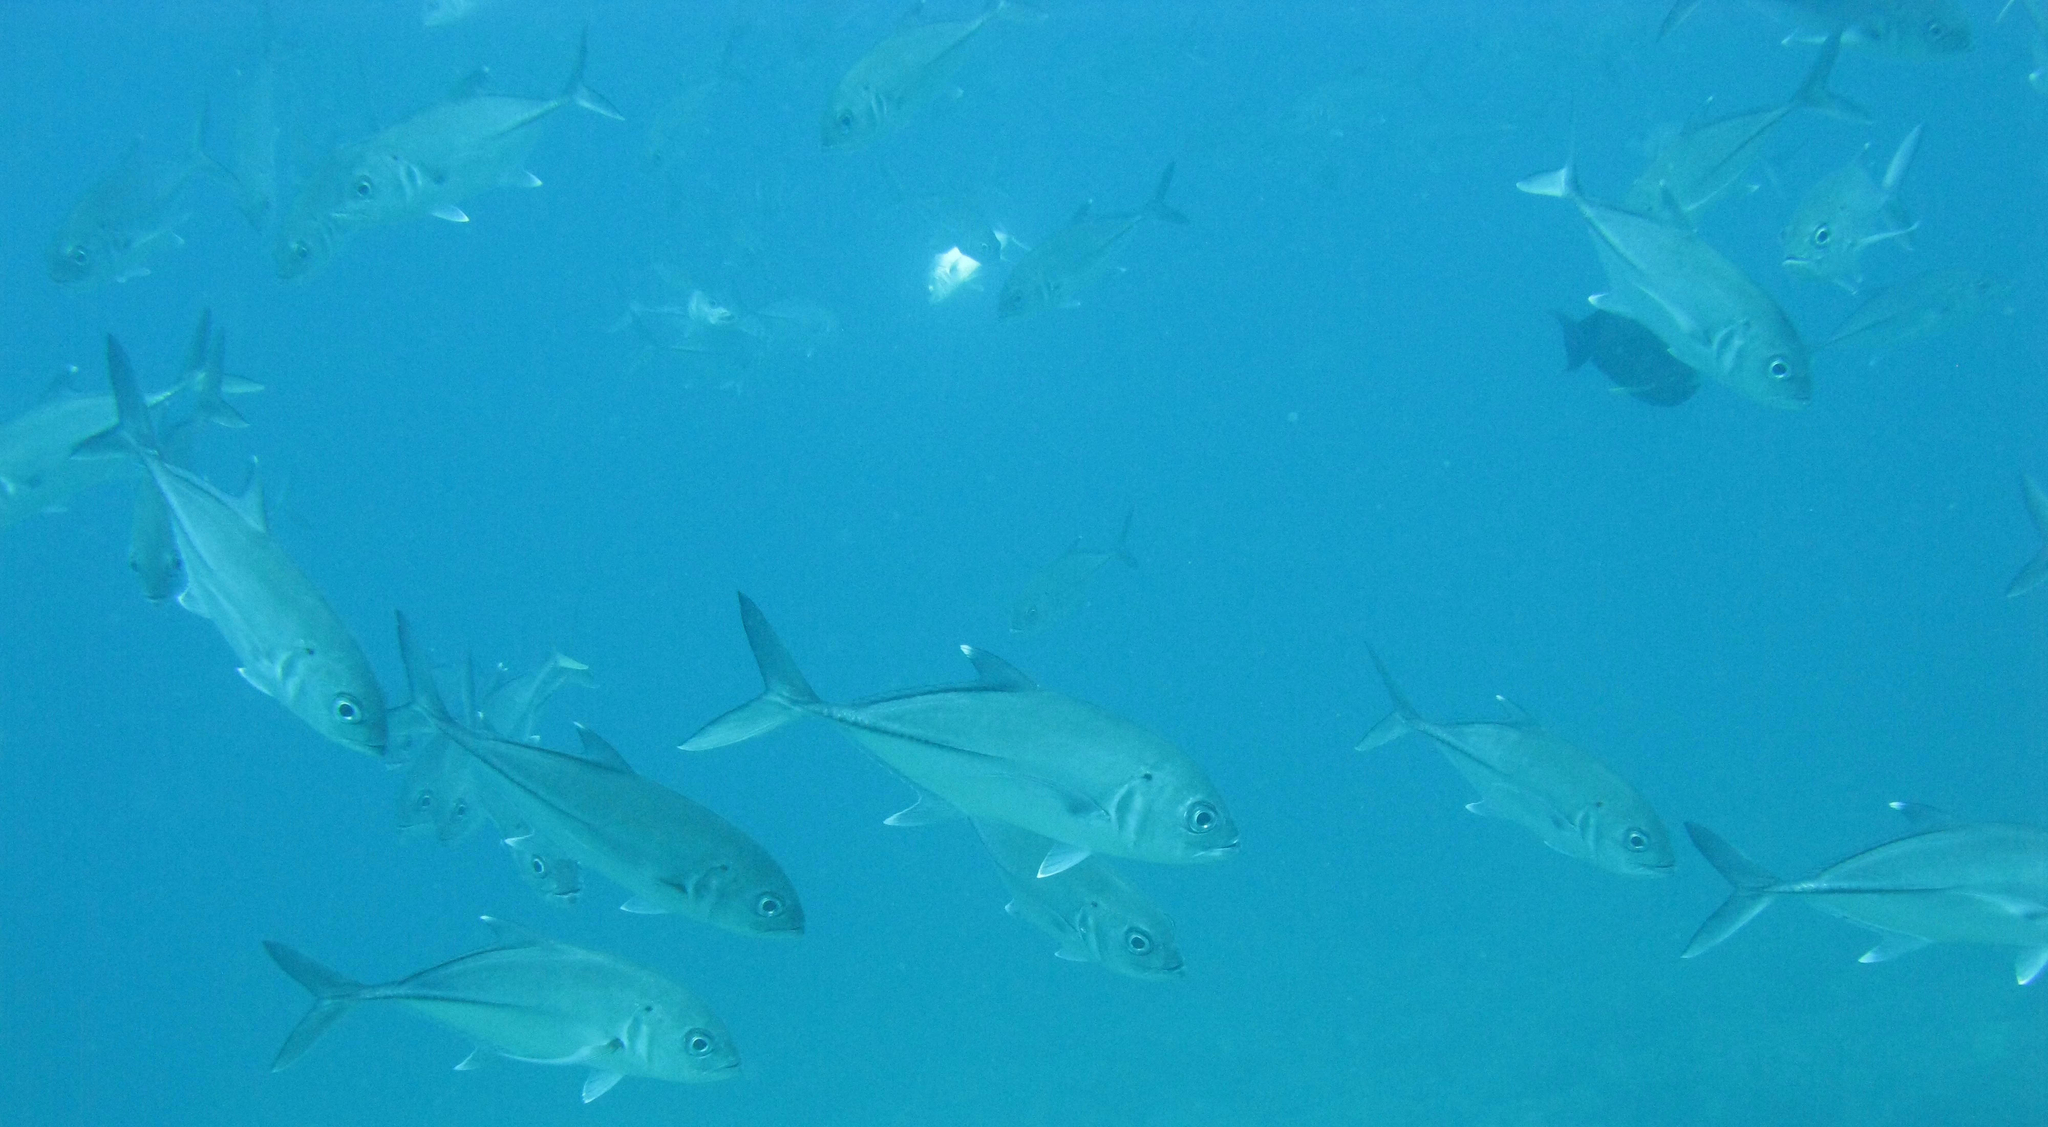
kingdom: Animalia
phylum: Chordata
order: Perciformes
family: Carangidae
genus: Caranx
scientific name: Caranx sexfasciatus
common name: Bigeye trevally
